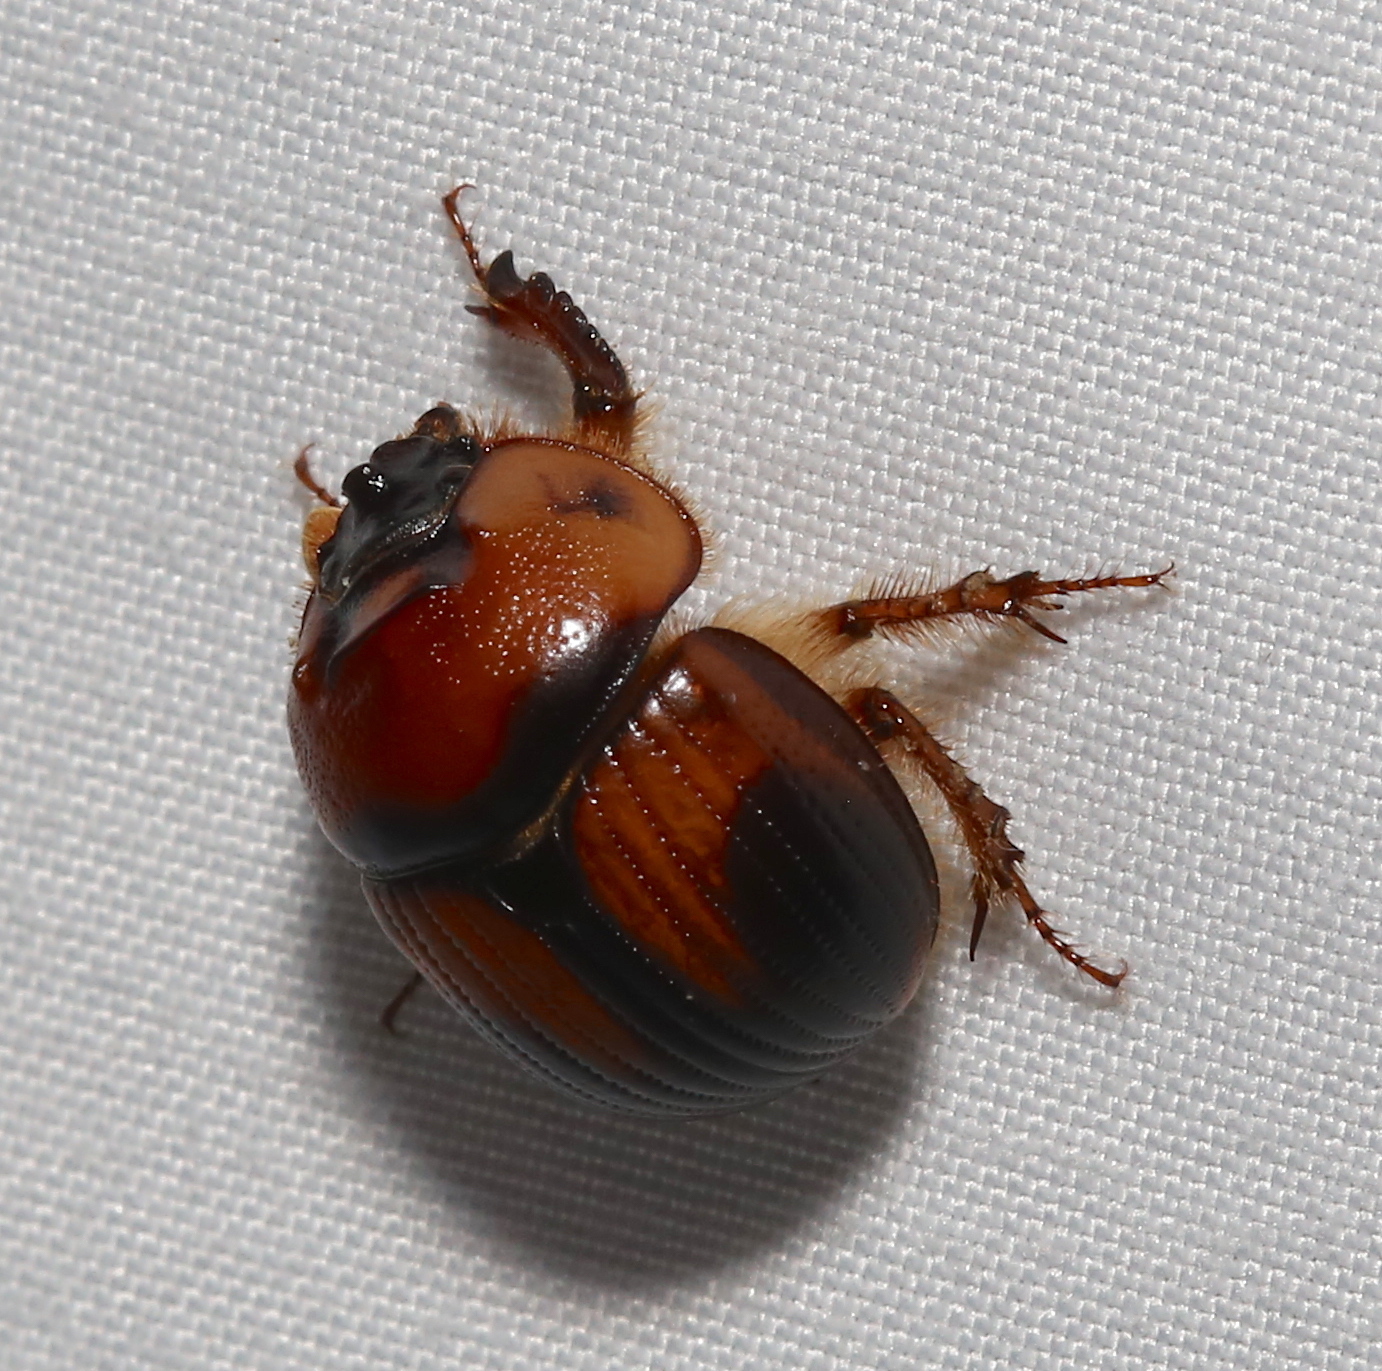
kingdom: Animalia
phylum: Arthropoda
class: Insecta
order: Coleoptera
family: Geotrupidae
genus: Bolbocerosoma
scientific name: Bolbocerosoma farctum
